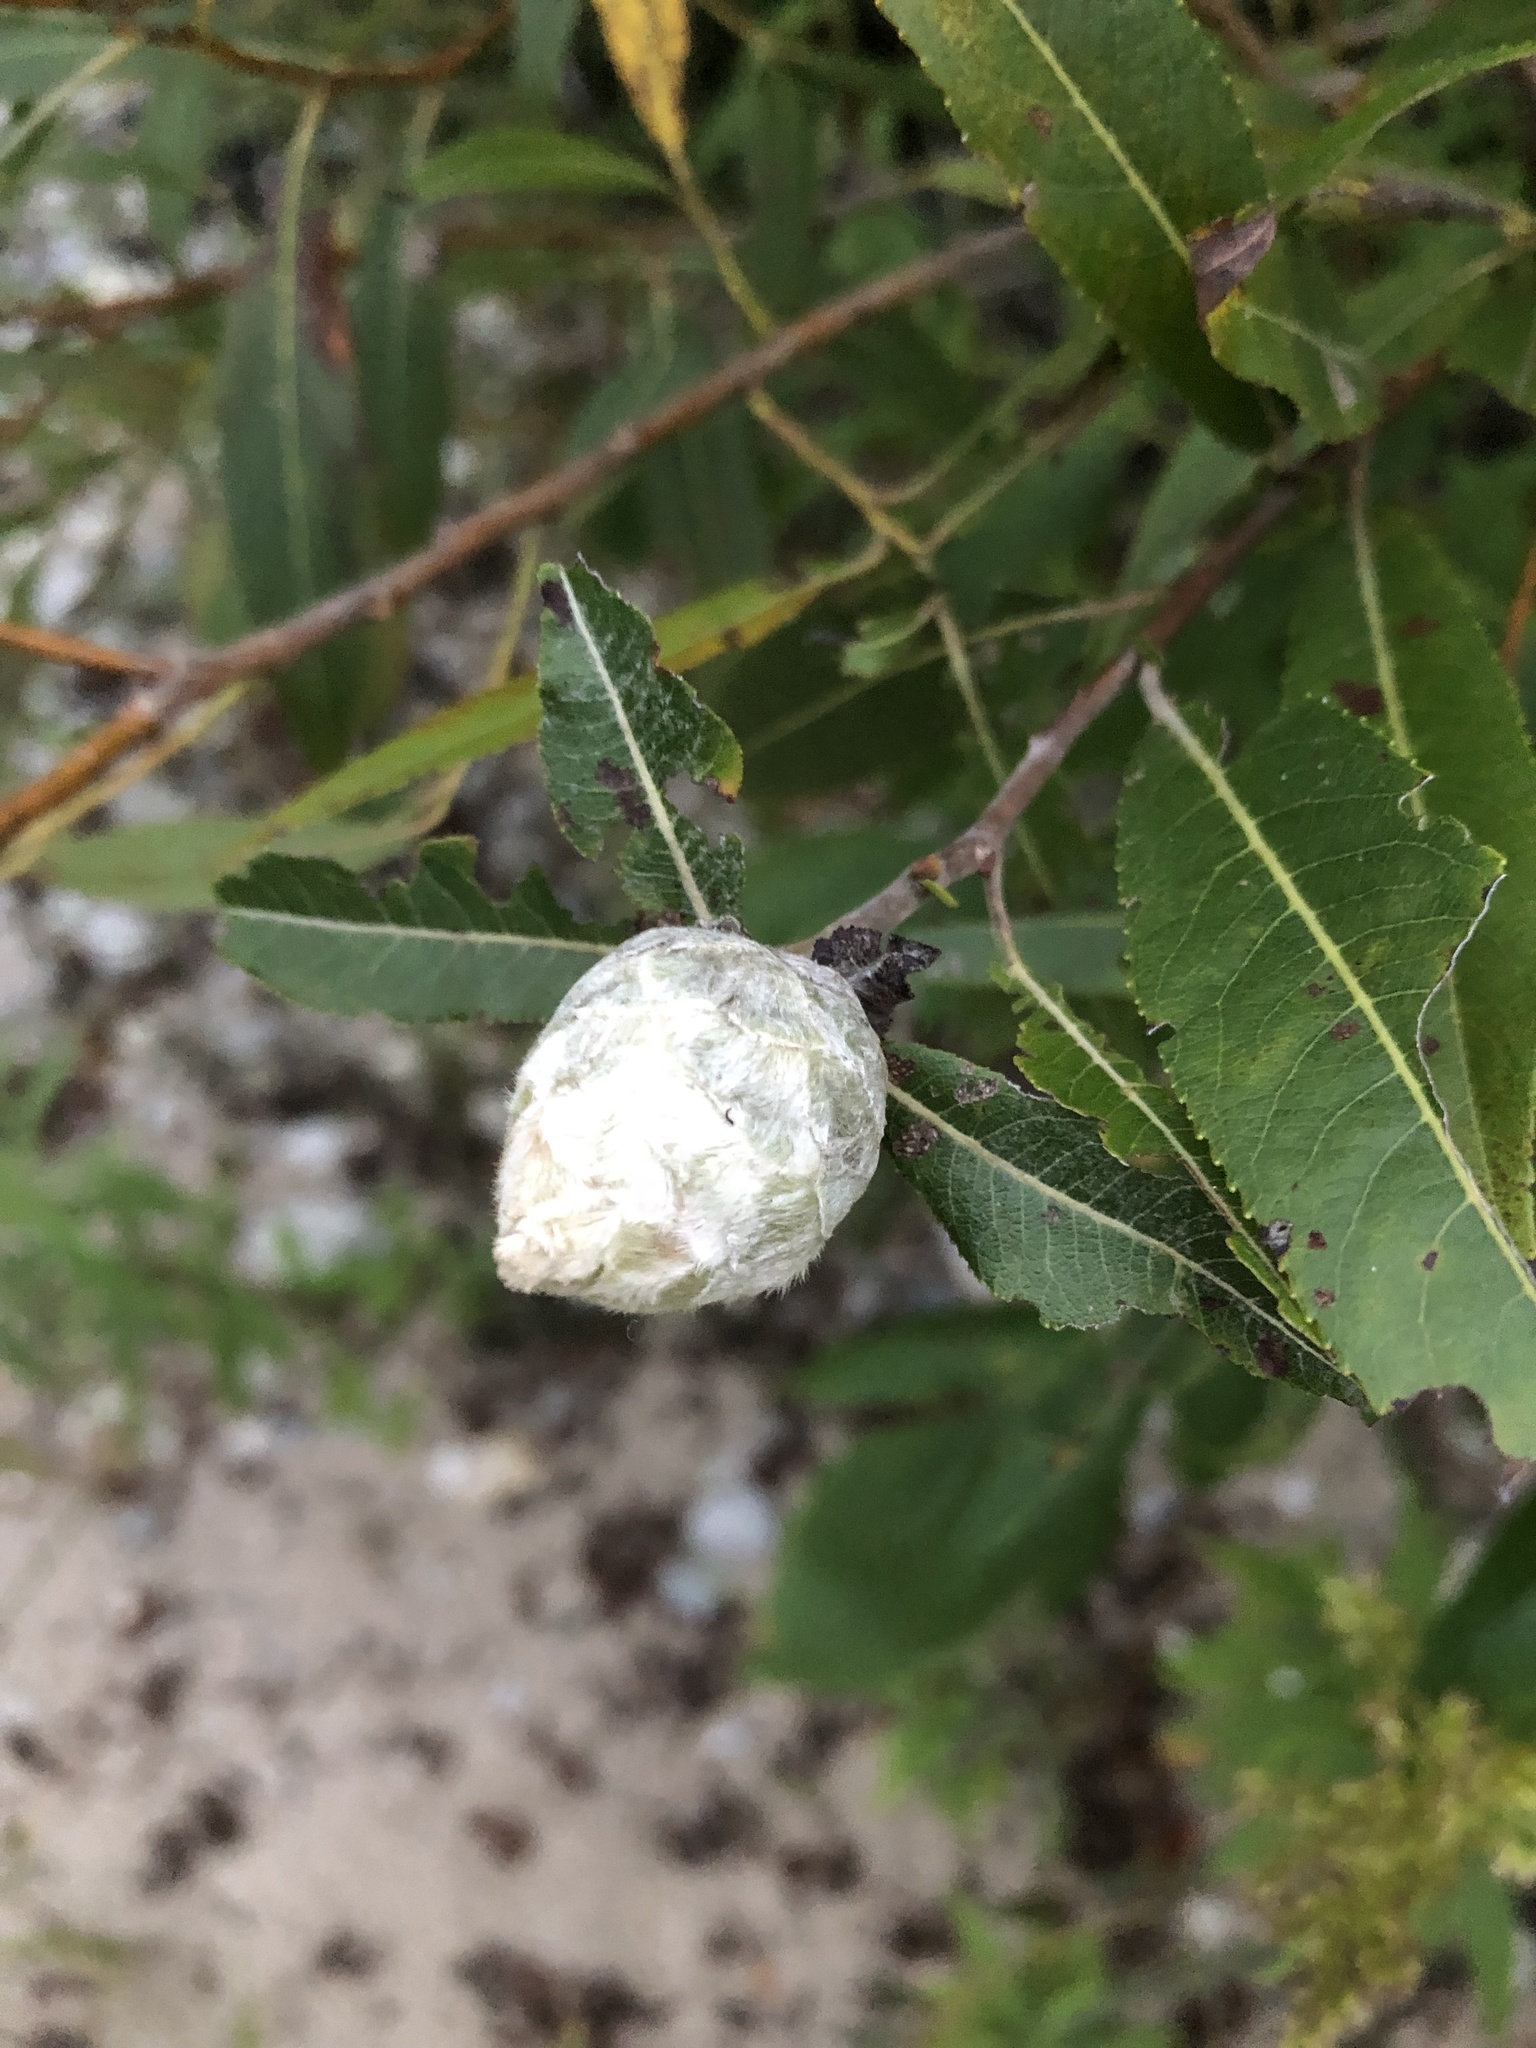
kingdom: Animalia
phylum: Arthropoda
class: Insecta
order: Diptera
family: Cecidomyiidae
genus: Rabdophaga
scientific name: Rabdophaga strobiloides
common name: Willow pinecone gall midge
